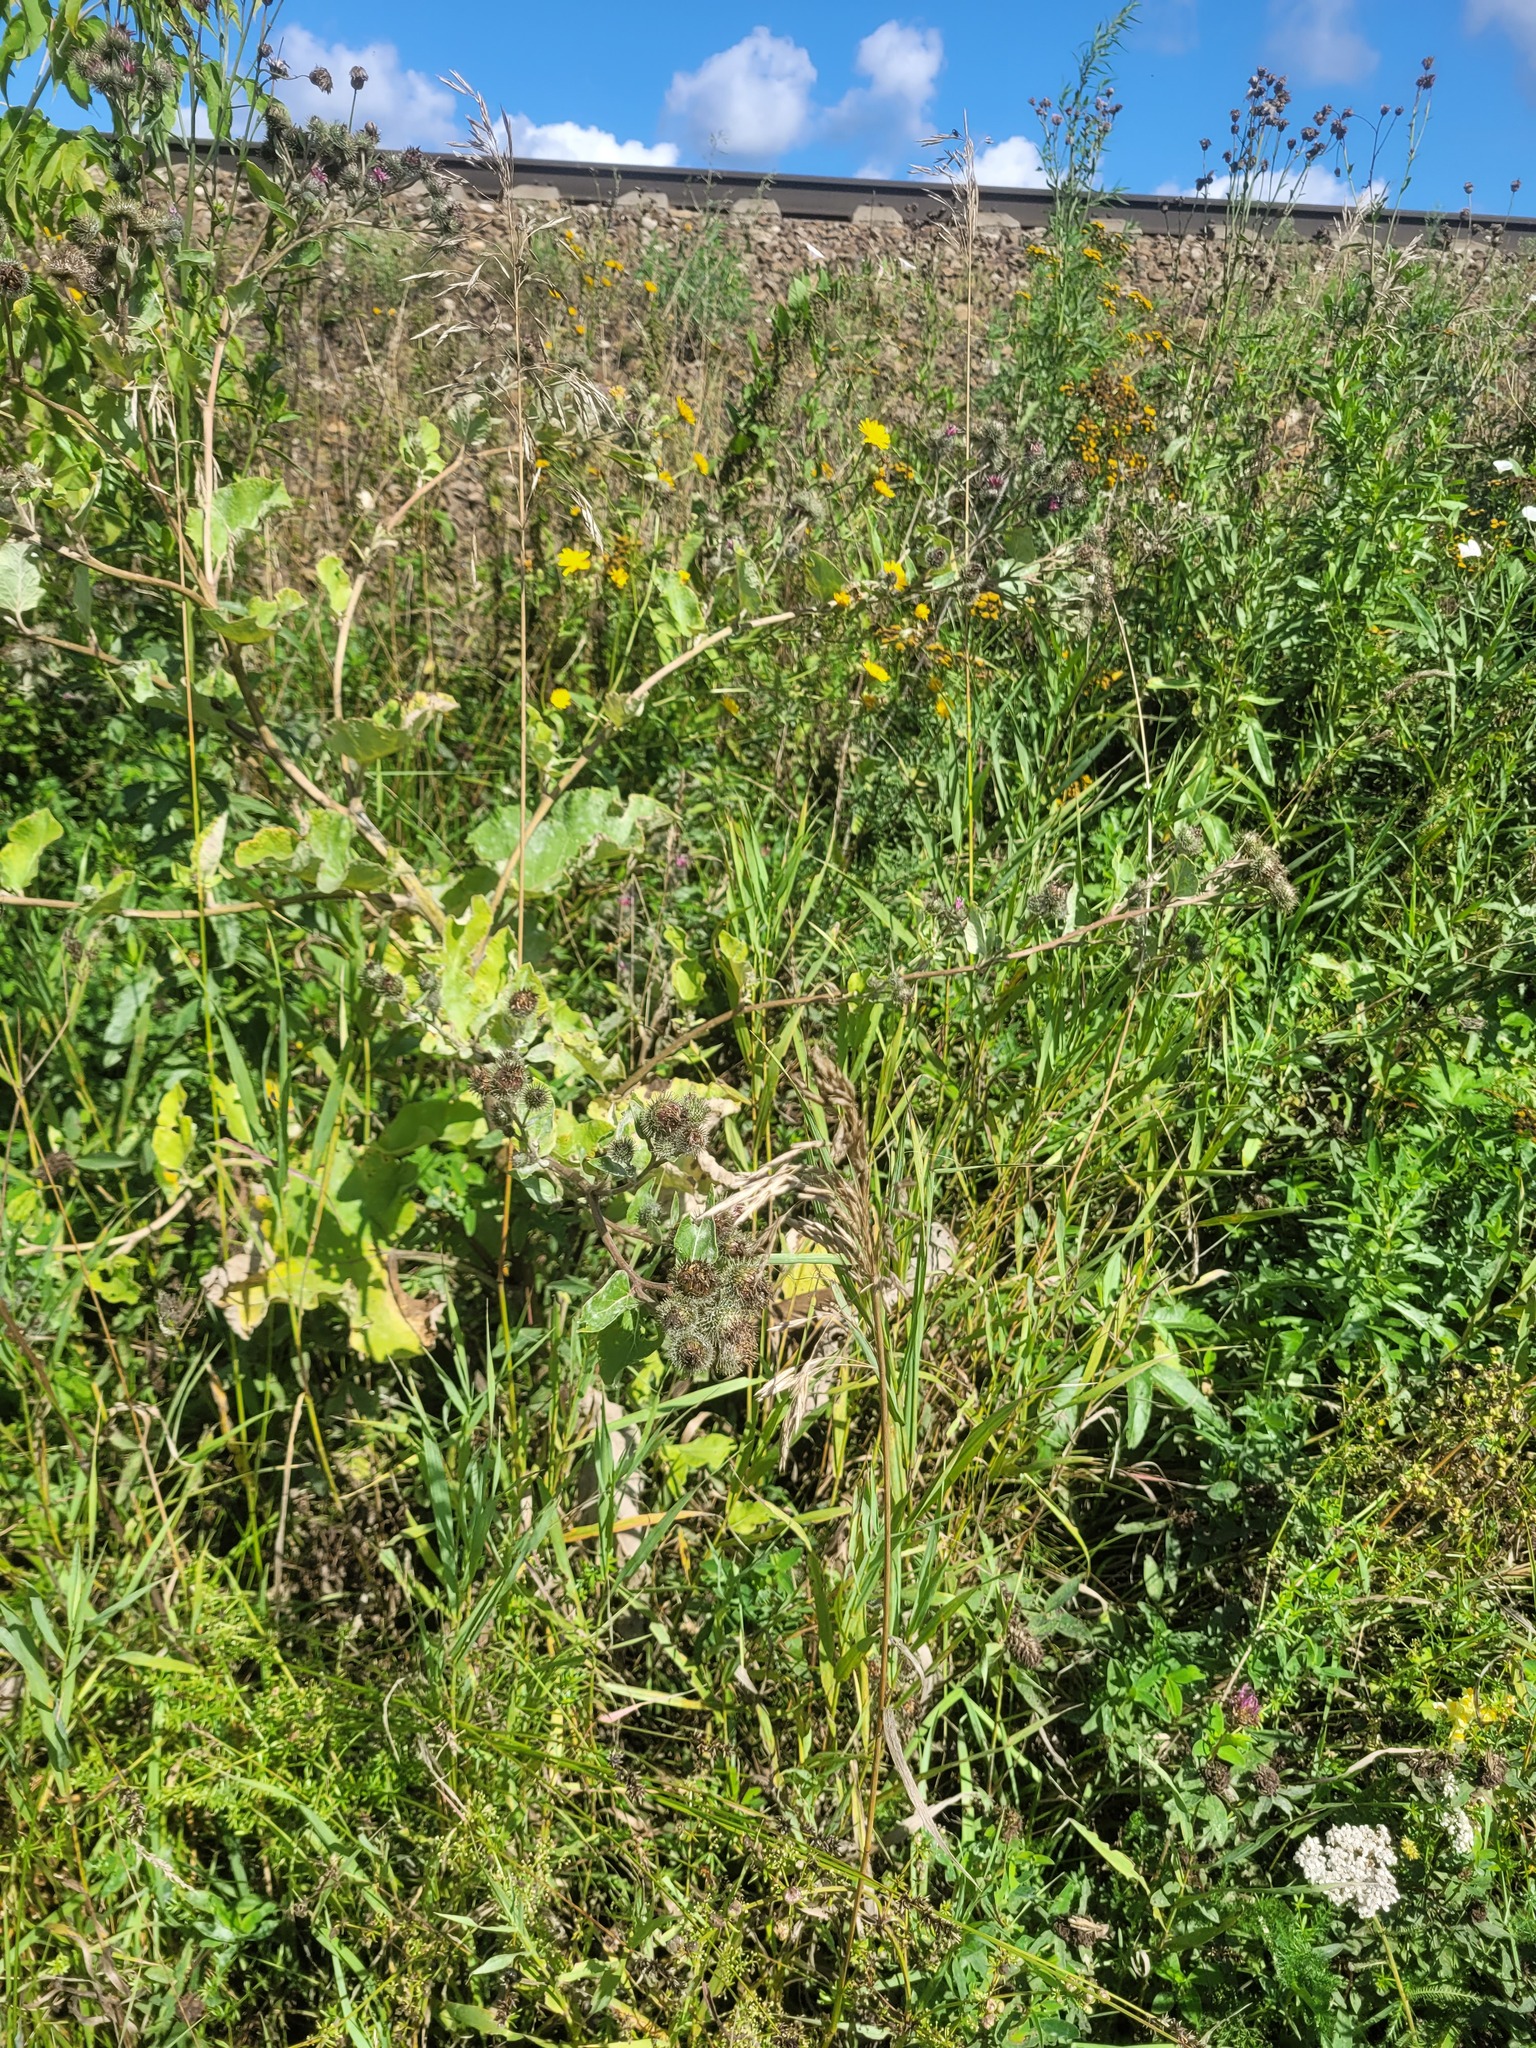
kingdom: Plantae
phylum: Tracheophyta
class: Magnoliopsida
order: Asterales
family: Asteraceae
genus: Arctium
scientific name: Arctium tomentosum
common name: Woolly burdock
